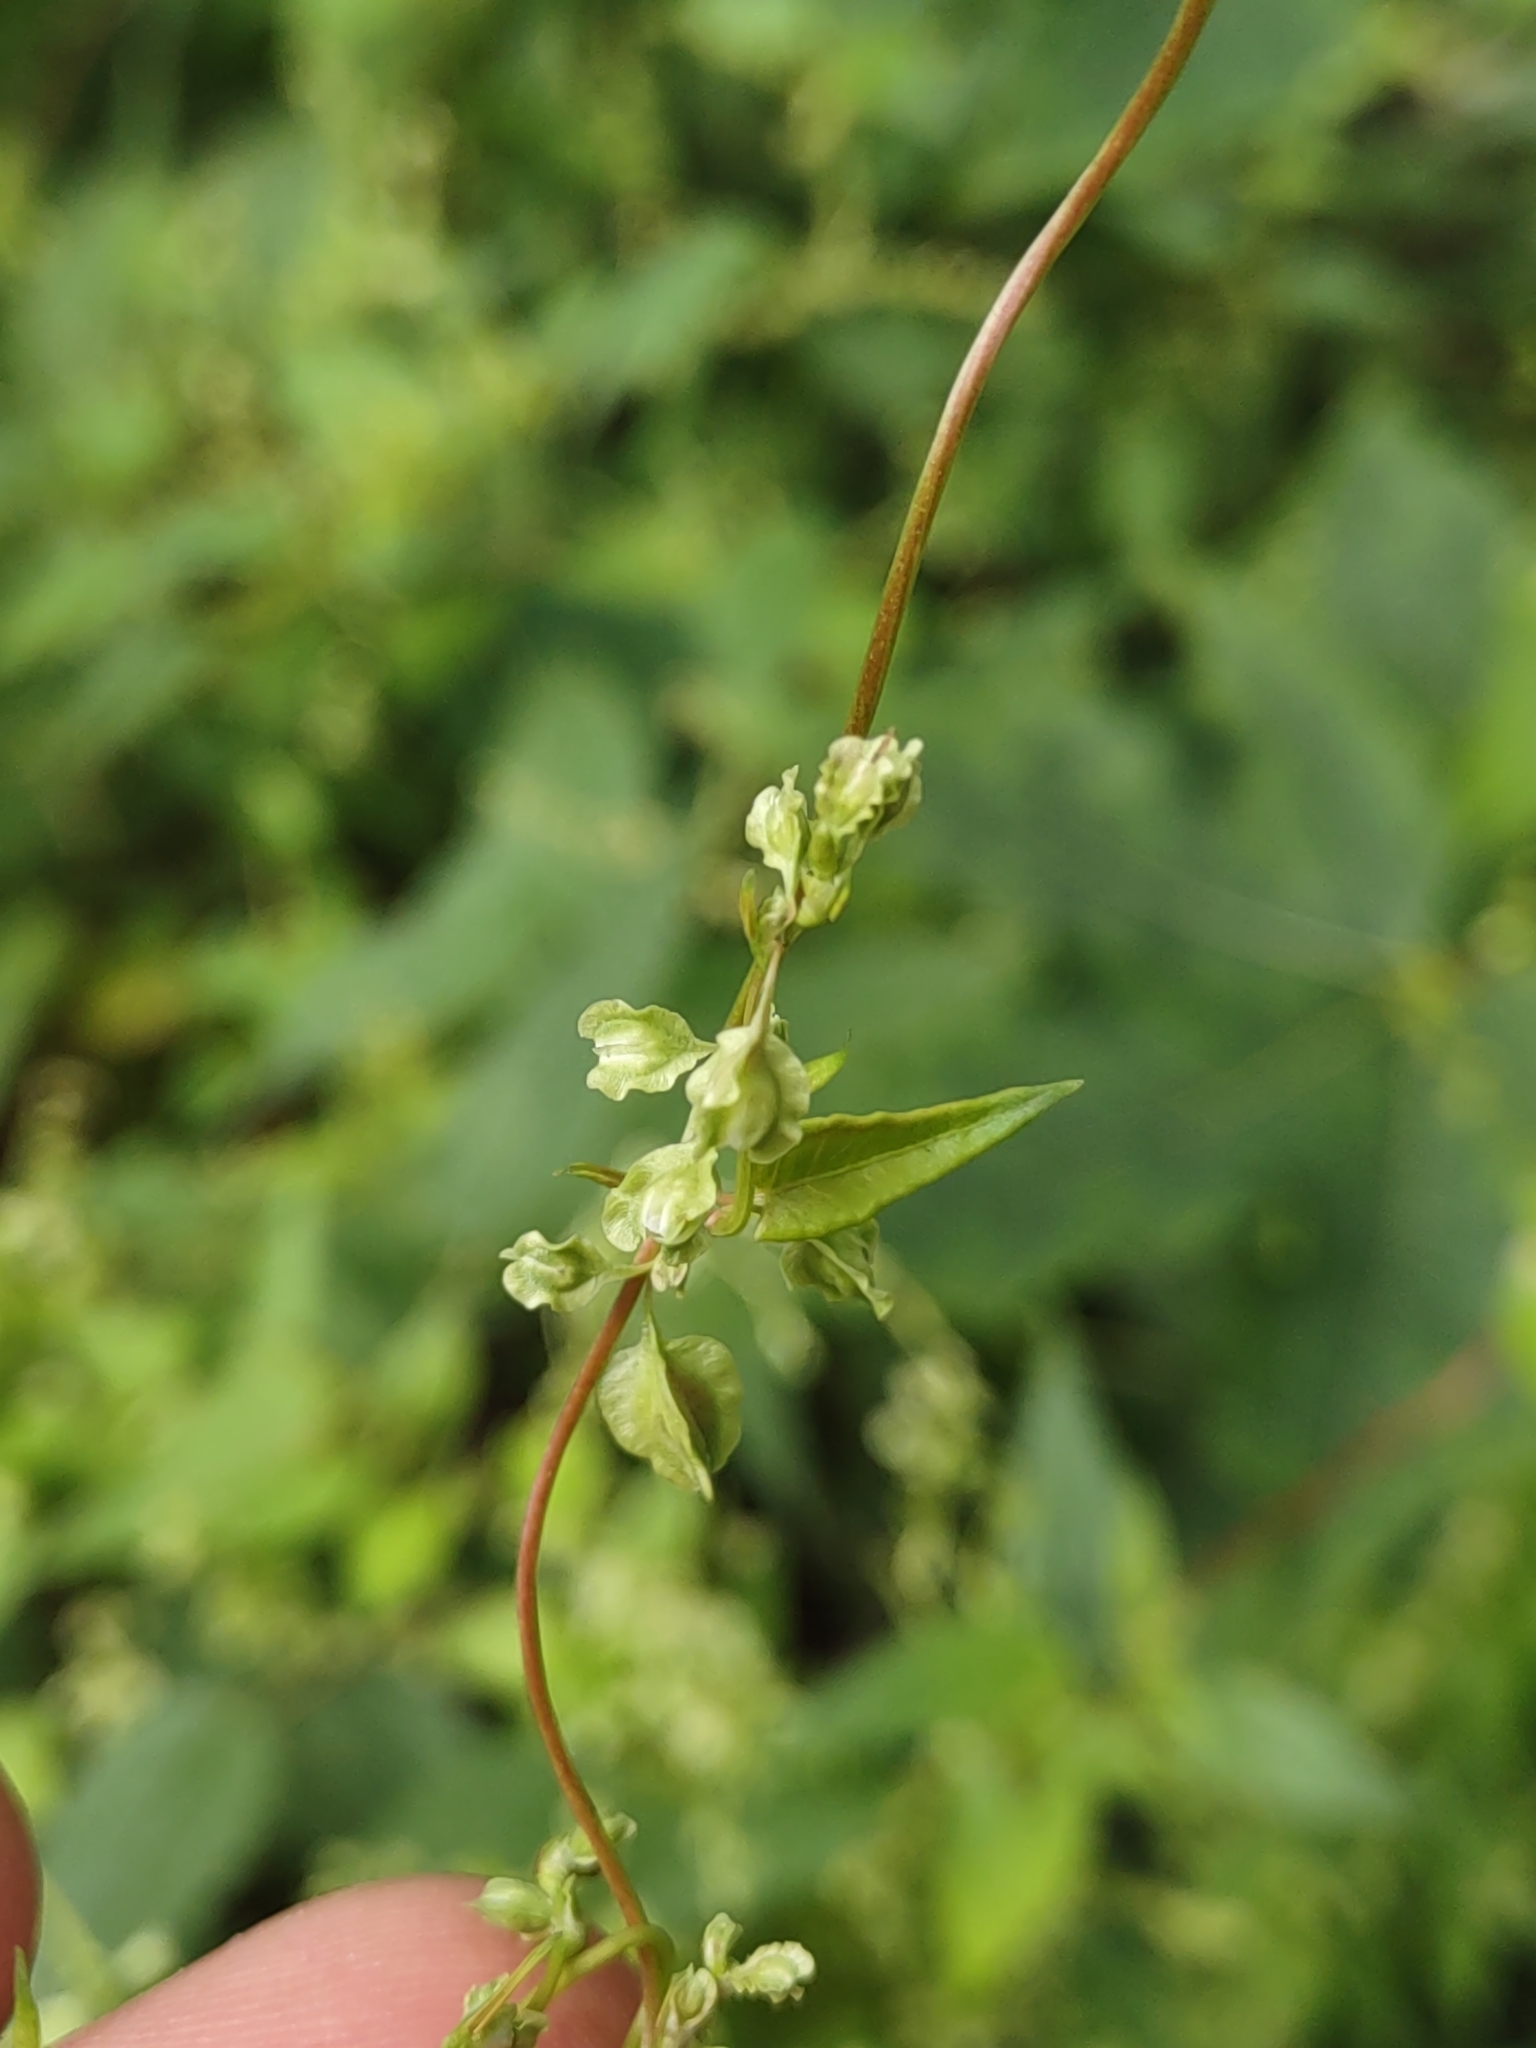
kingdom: Plantae
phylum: Tracheophyta
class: Magnoliopsida
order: Caryophyllales
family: Polygonaceae
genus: Fallopia
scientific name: Fallopia dumetorum
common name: Copse-bindweed
